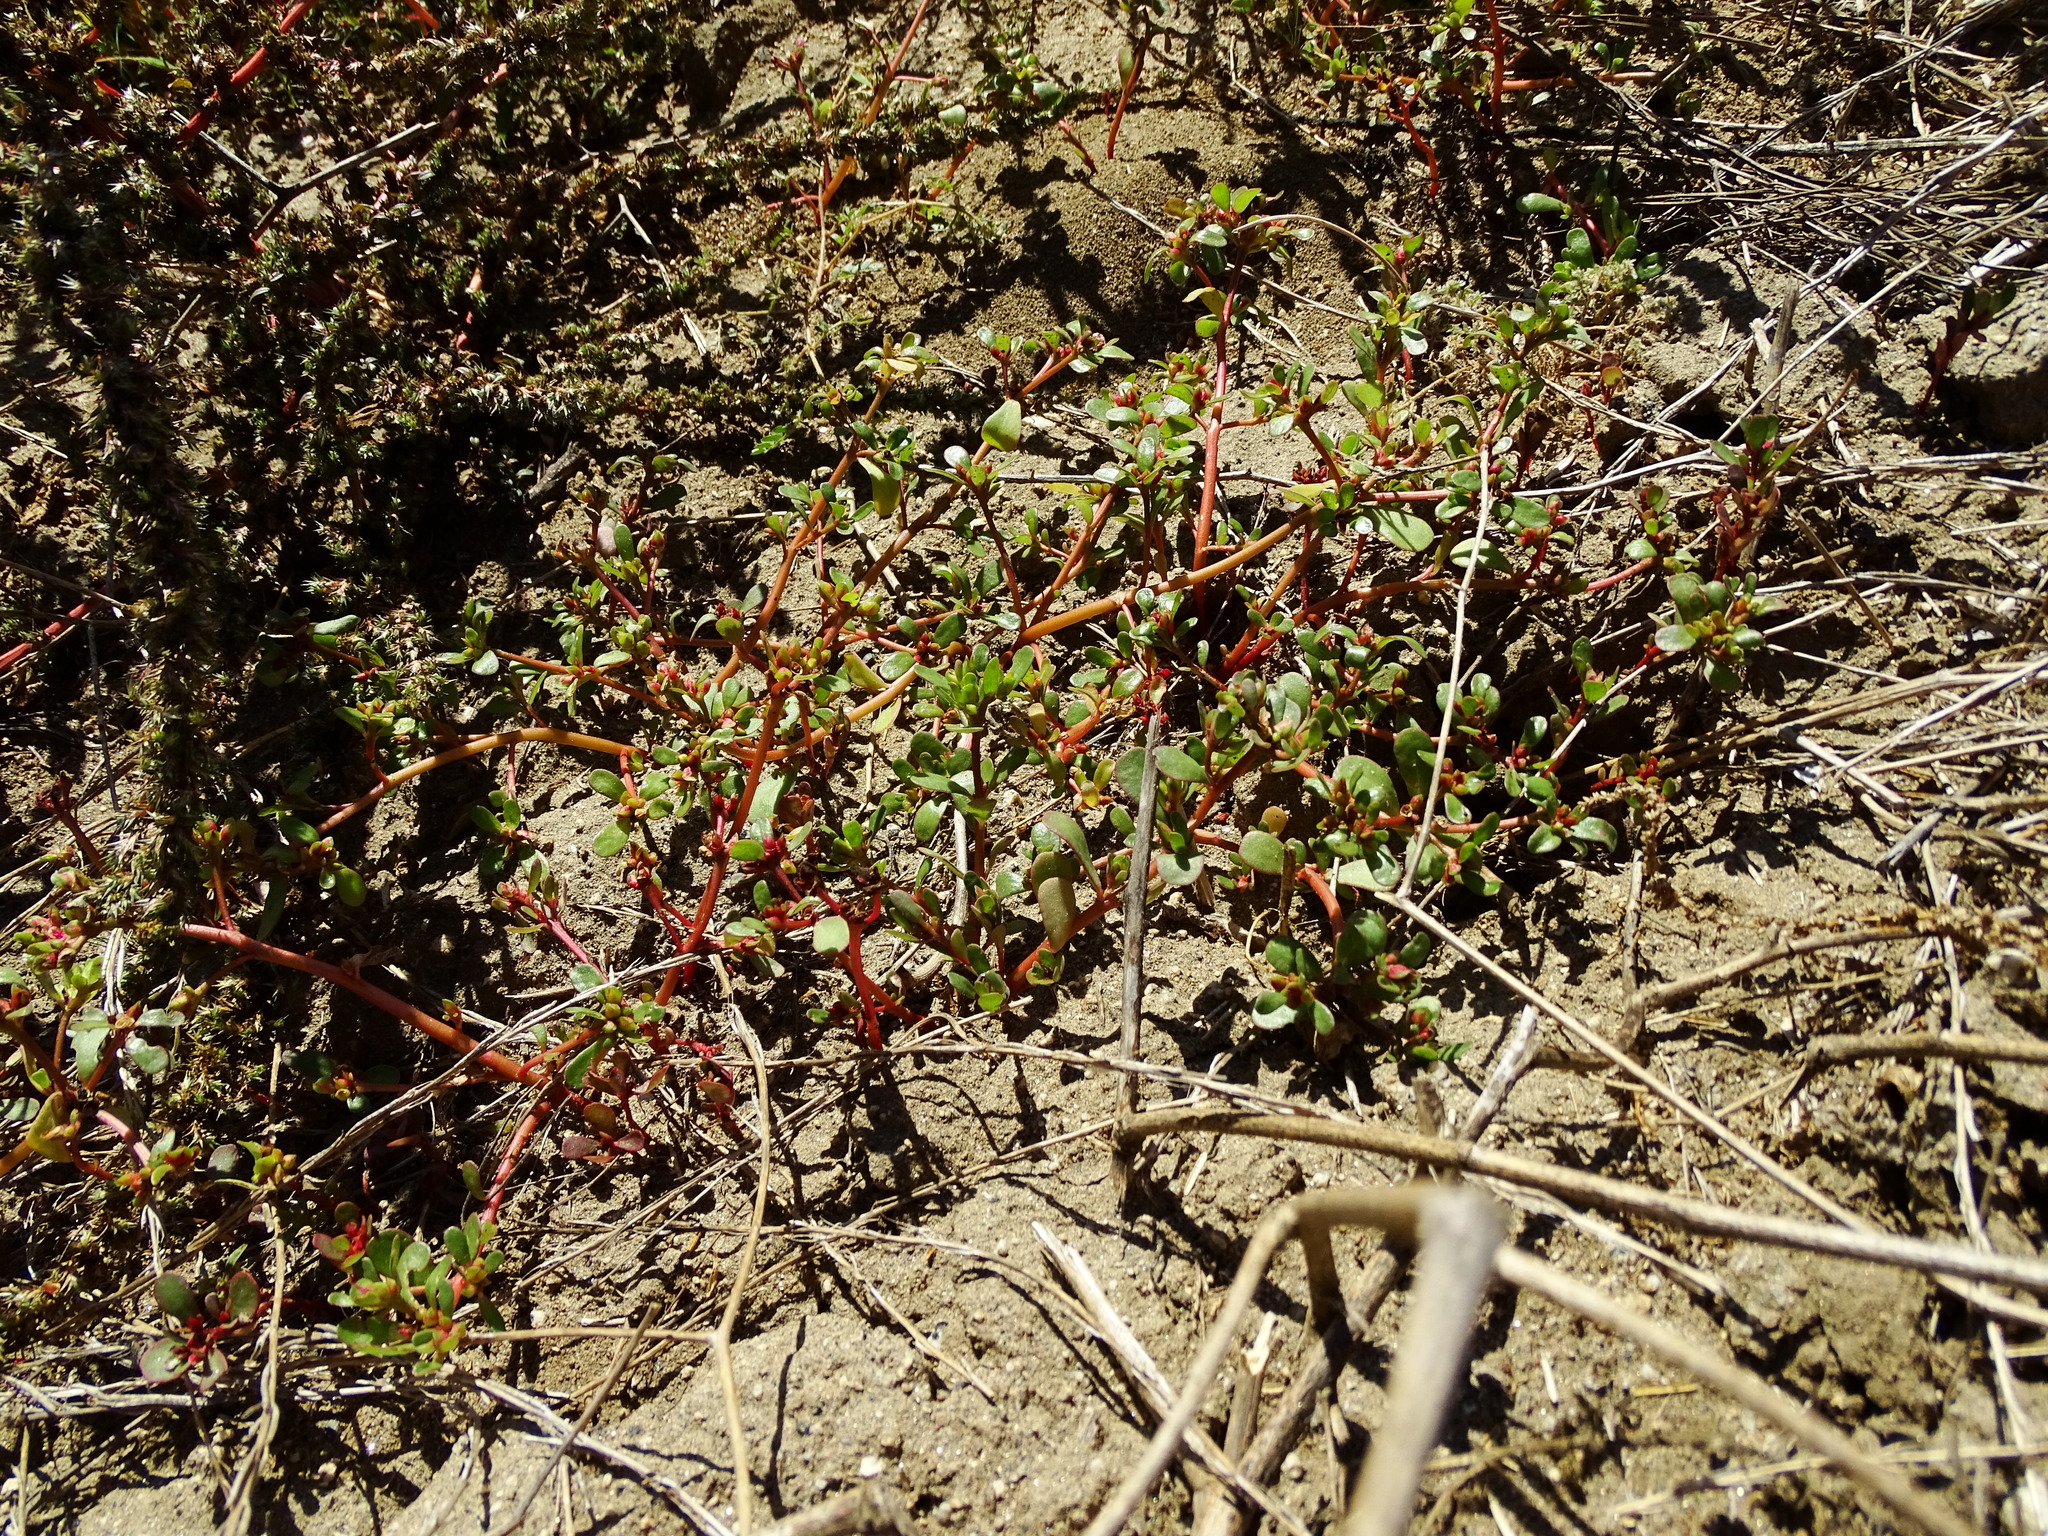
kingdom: Plantae
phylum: Tracheophyta
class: Magnoliopsida
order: Caryophyllales
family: Portulacaceae
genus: Portulaca
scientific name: Portulaca oleracea
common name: Common purslane
